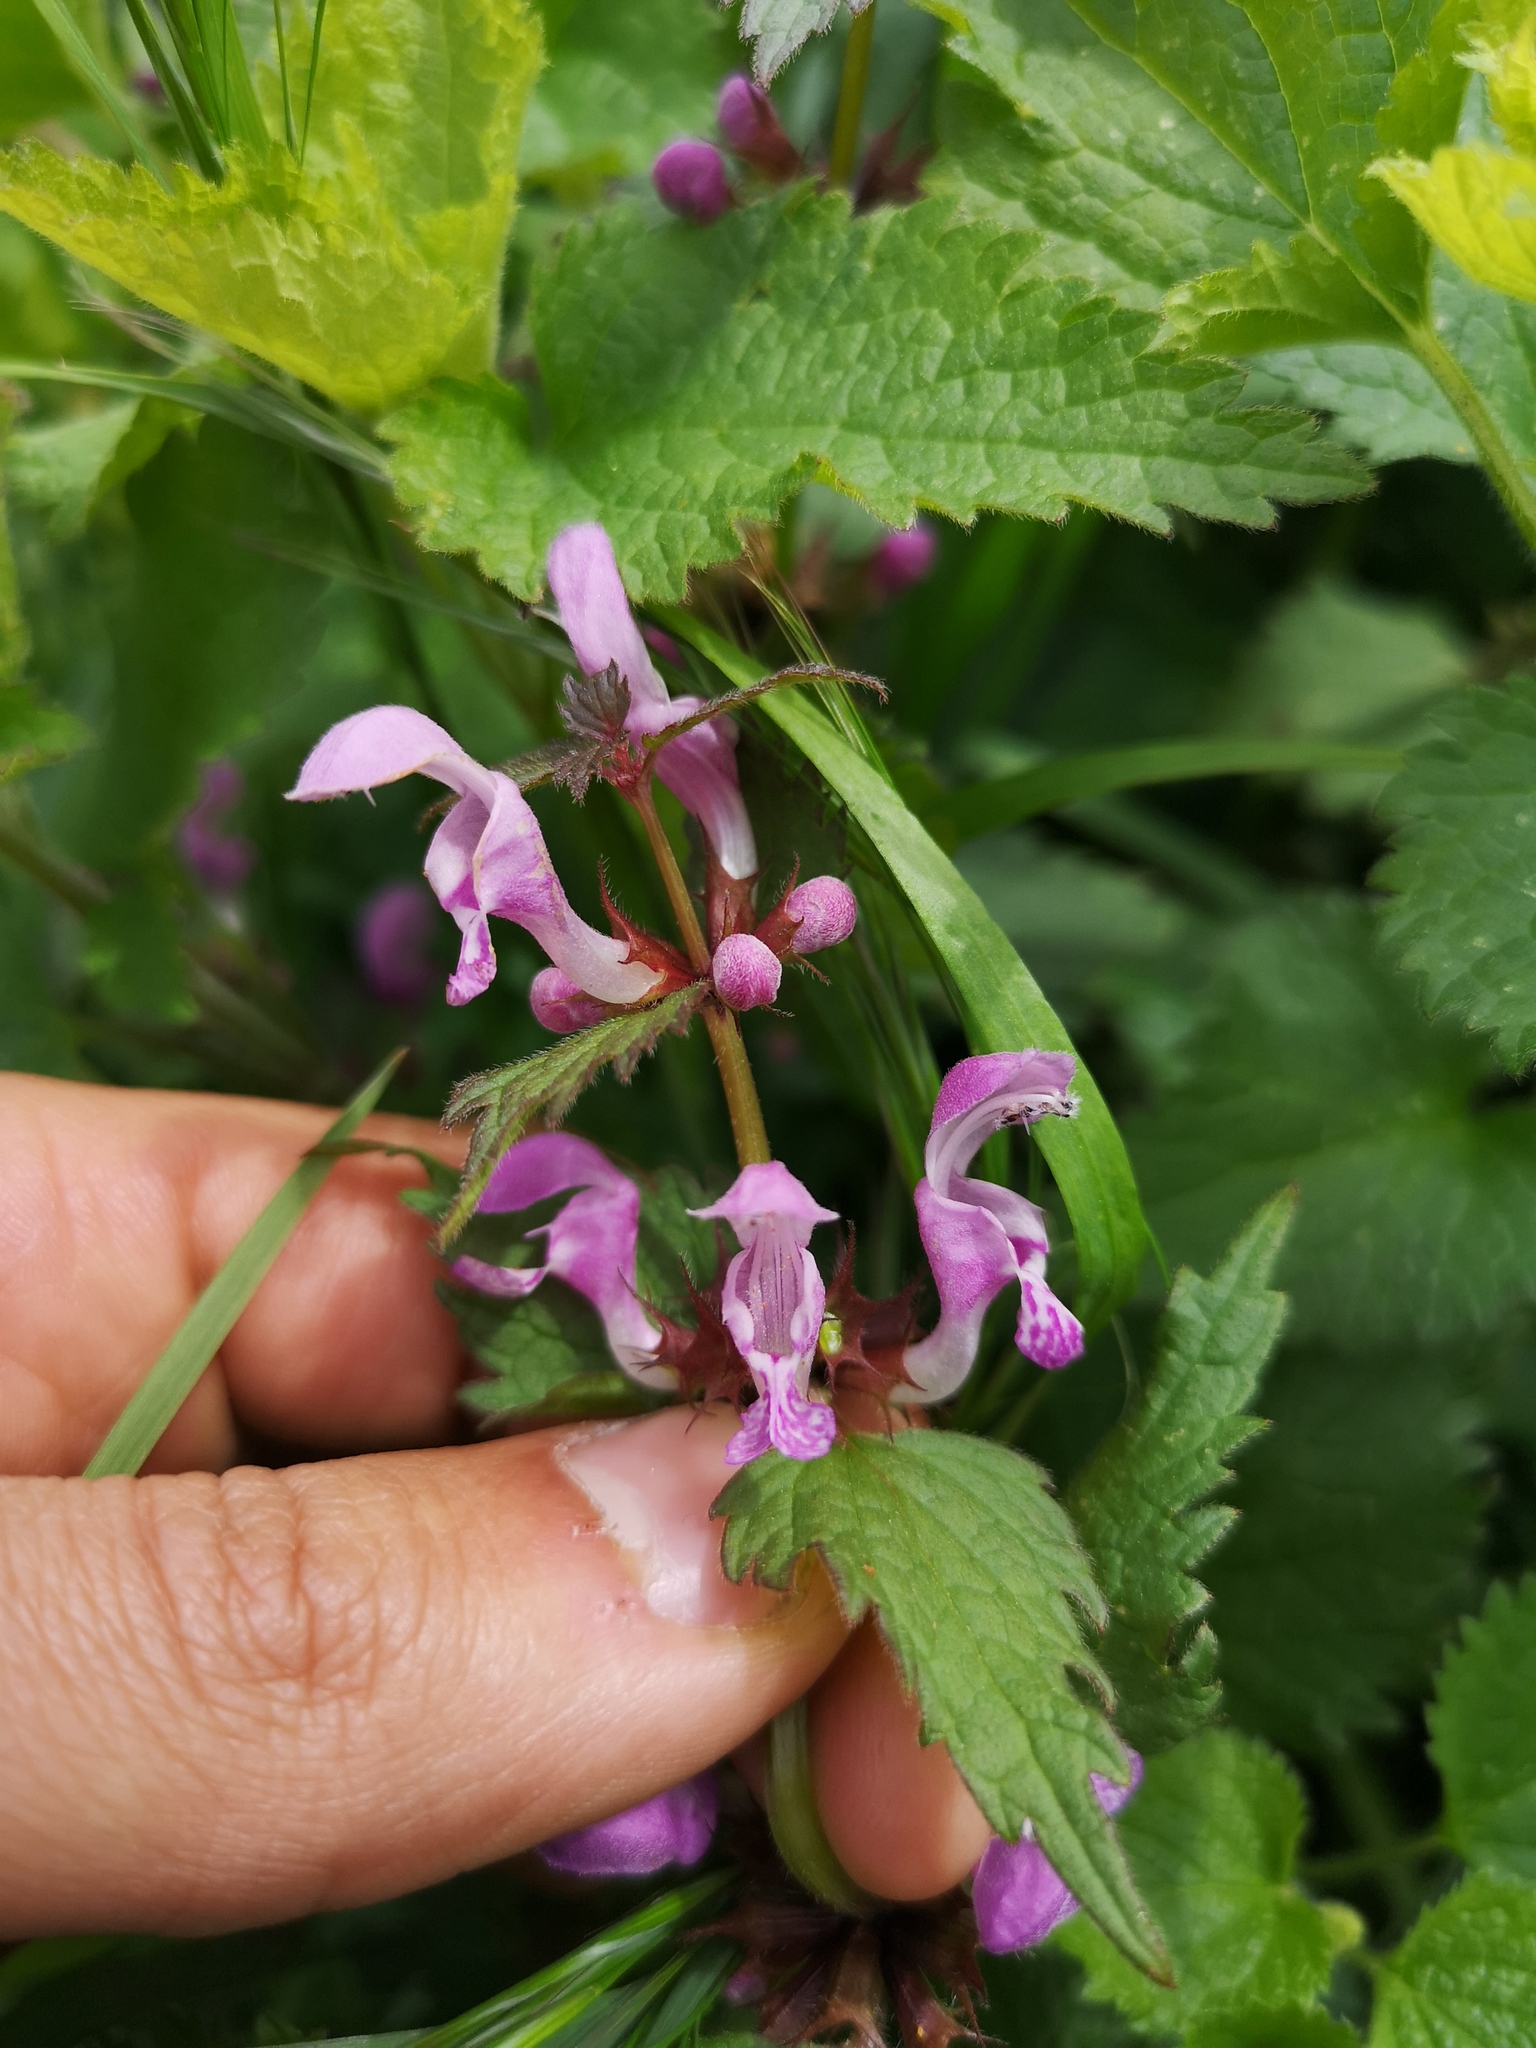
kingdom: Plantae
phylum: Tracheophyta
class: Magnoliopsida
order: Lamiales
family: Lamiaceae
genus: Lamium
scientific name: Lamium maculatum
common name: Spotted dead-nettle
